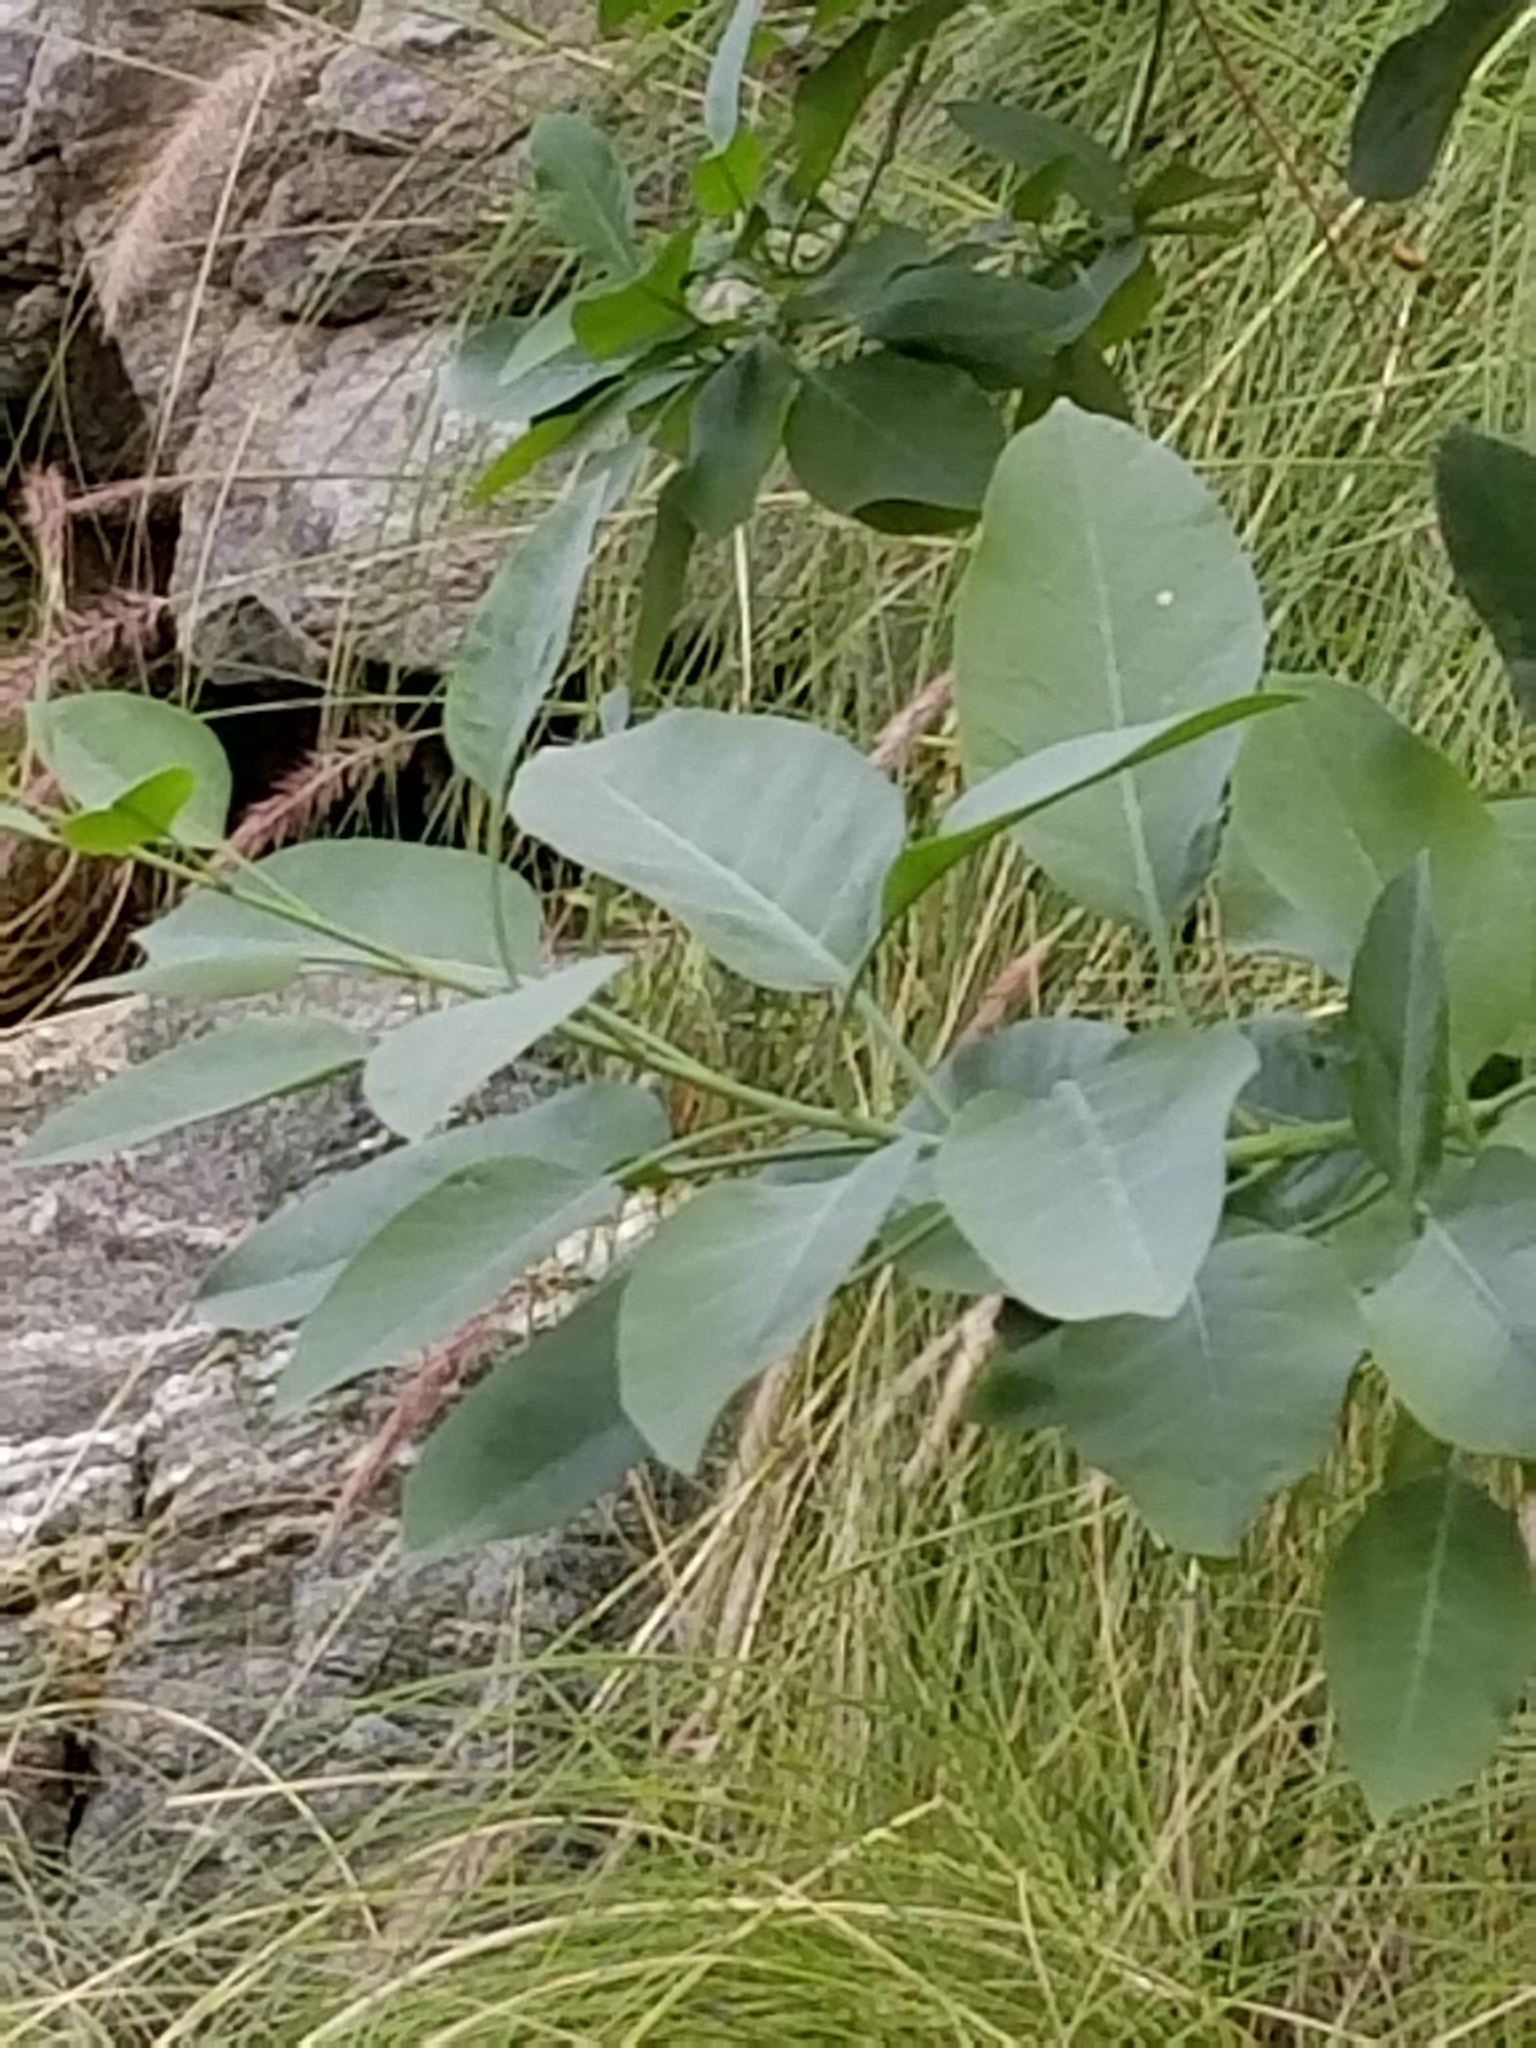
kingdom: Plantae
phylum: Tracheophyta
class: Magnoliopsida
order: Solanales
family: Solanaceae
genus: Nicotiana
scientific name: Nicotiana glauca
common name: Tree tobacco
